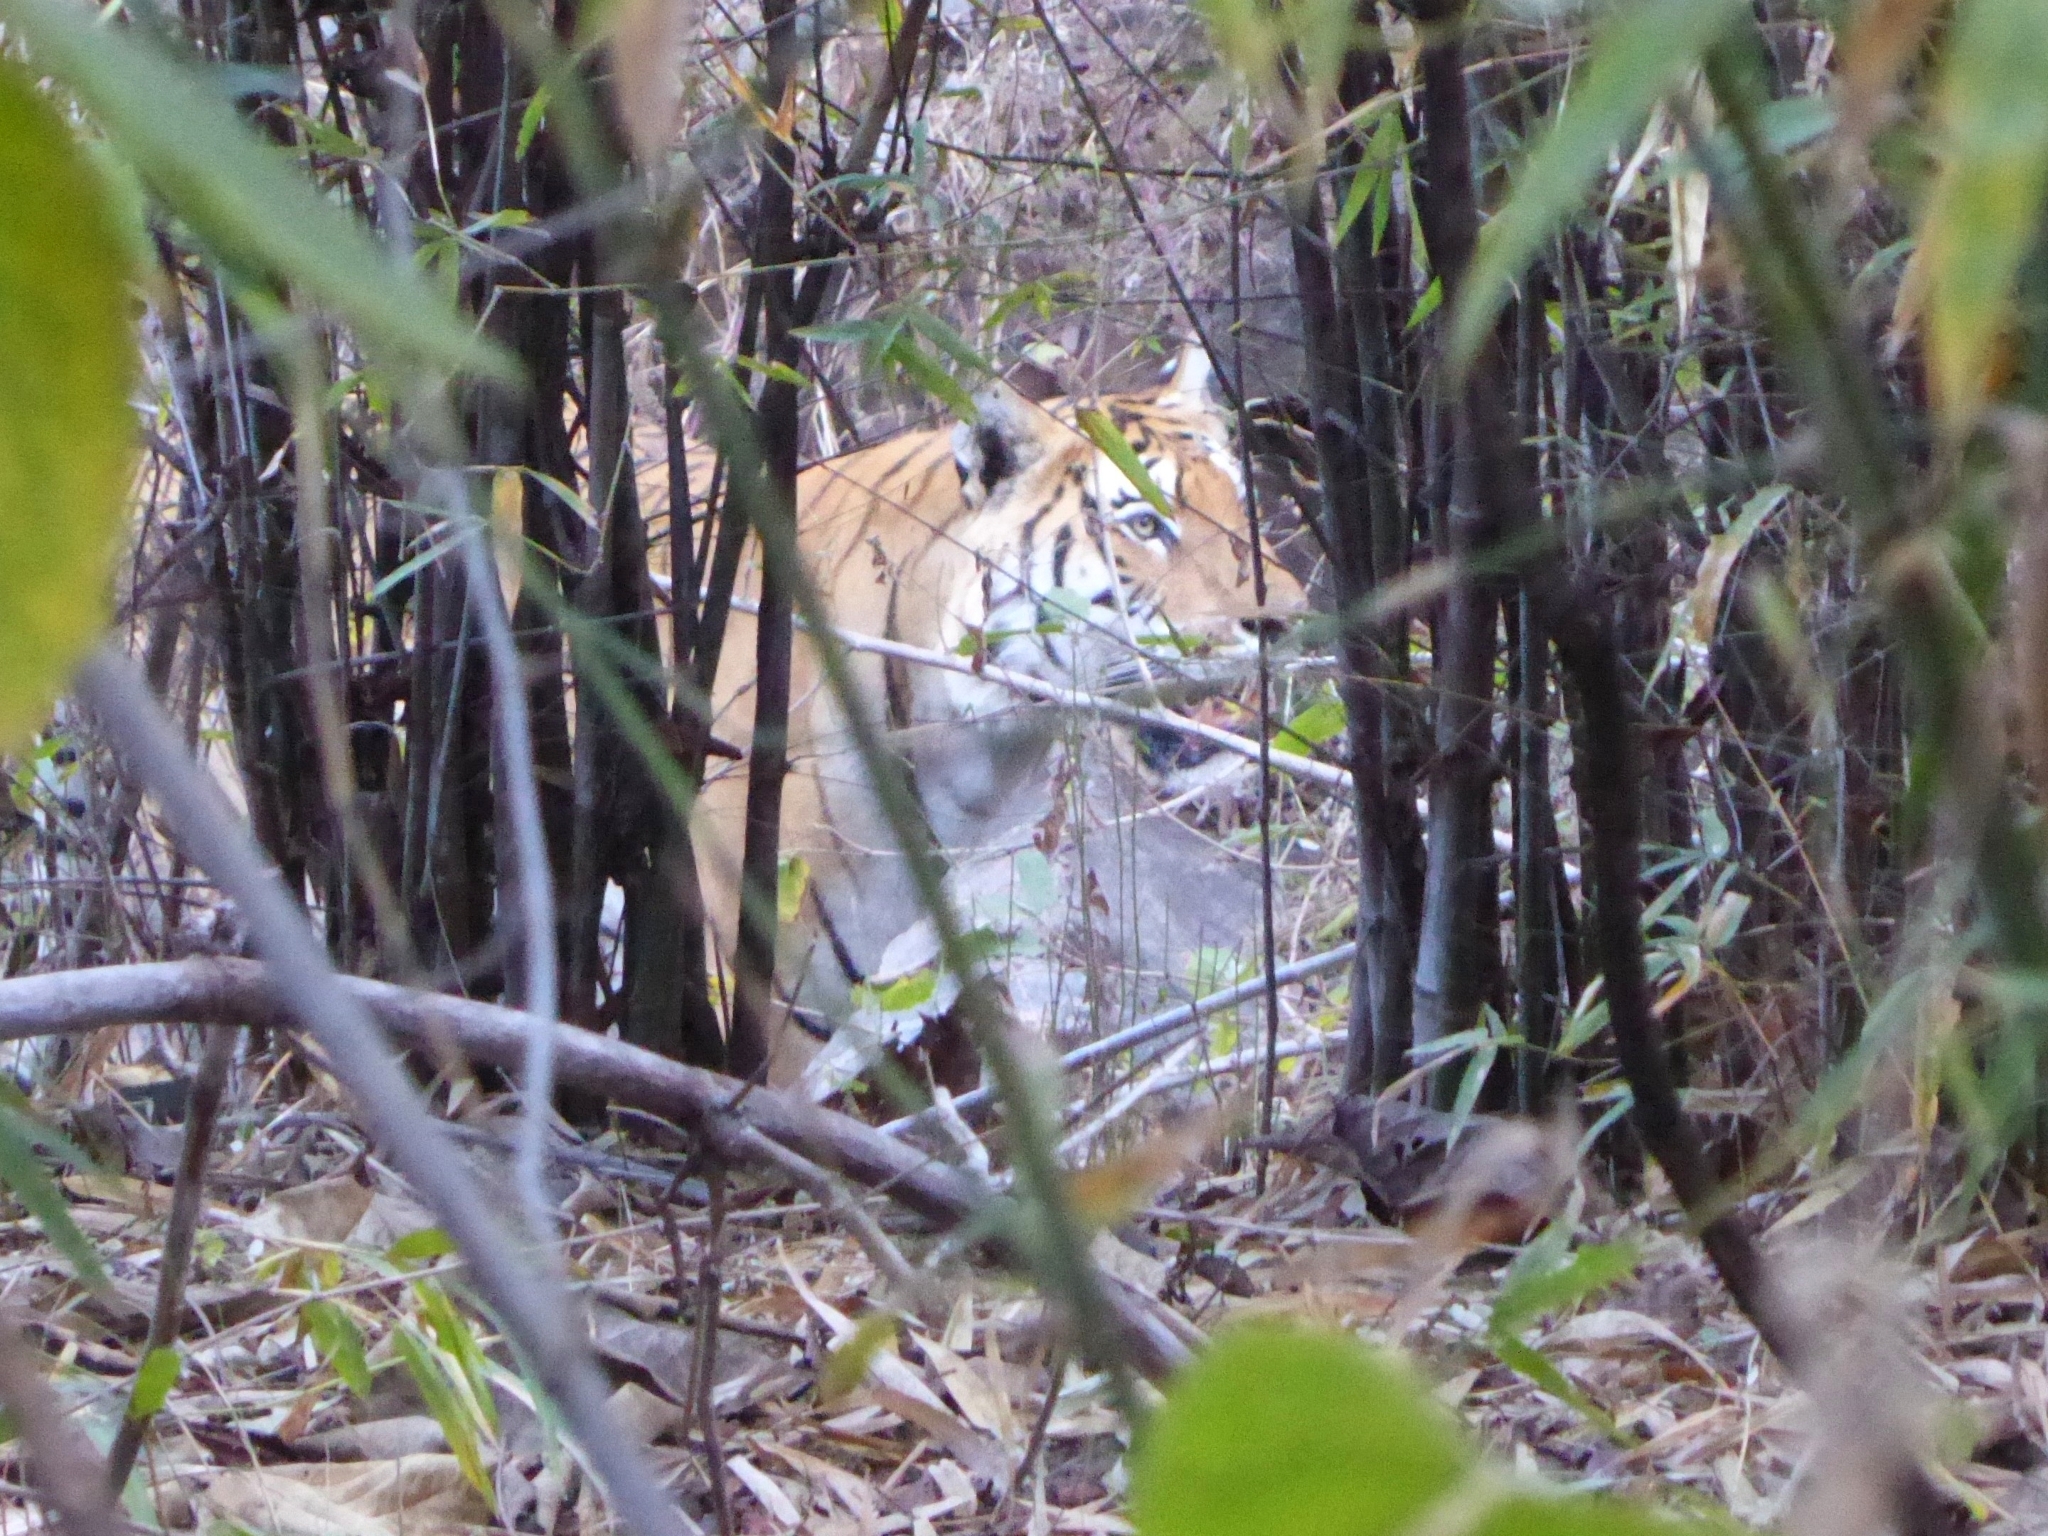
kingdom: Animalia
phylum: Chordata
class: Mammalia
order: Carnivora
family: Felidae
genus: Panthera
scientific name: Panthera tigris
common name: Tiger
